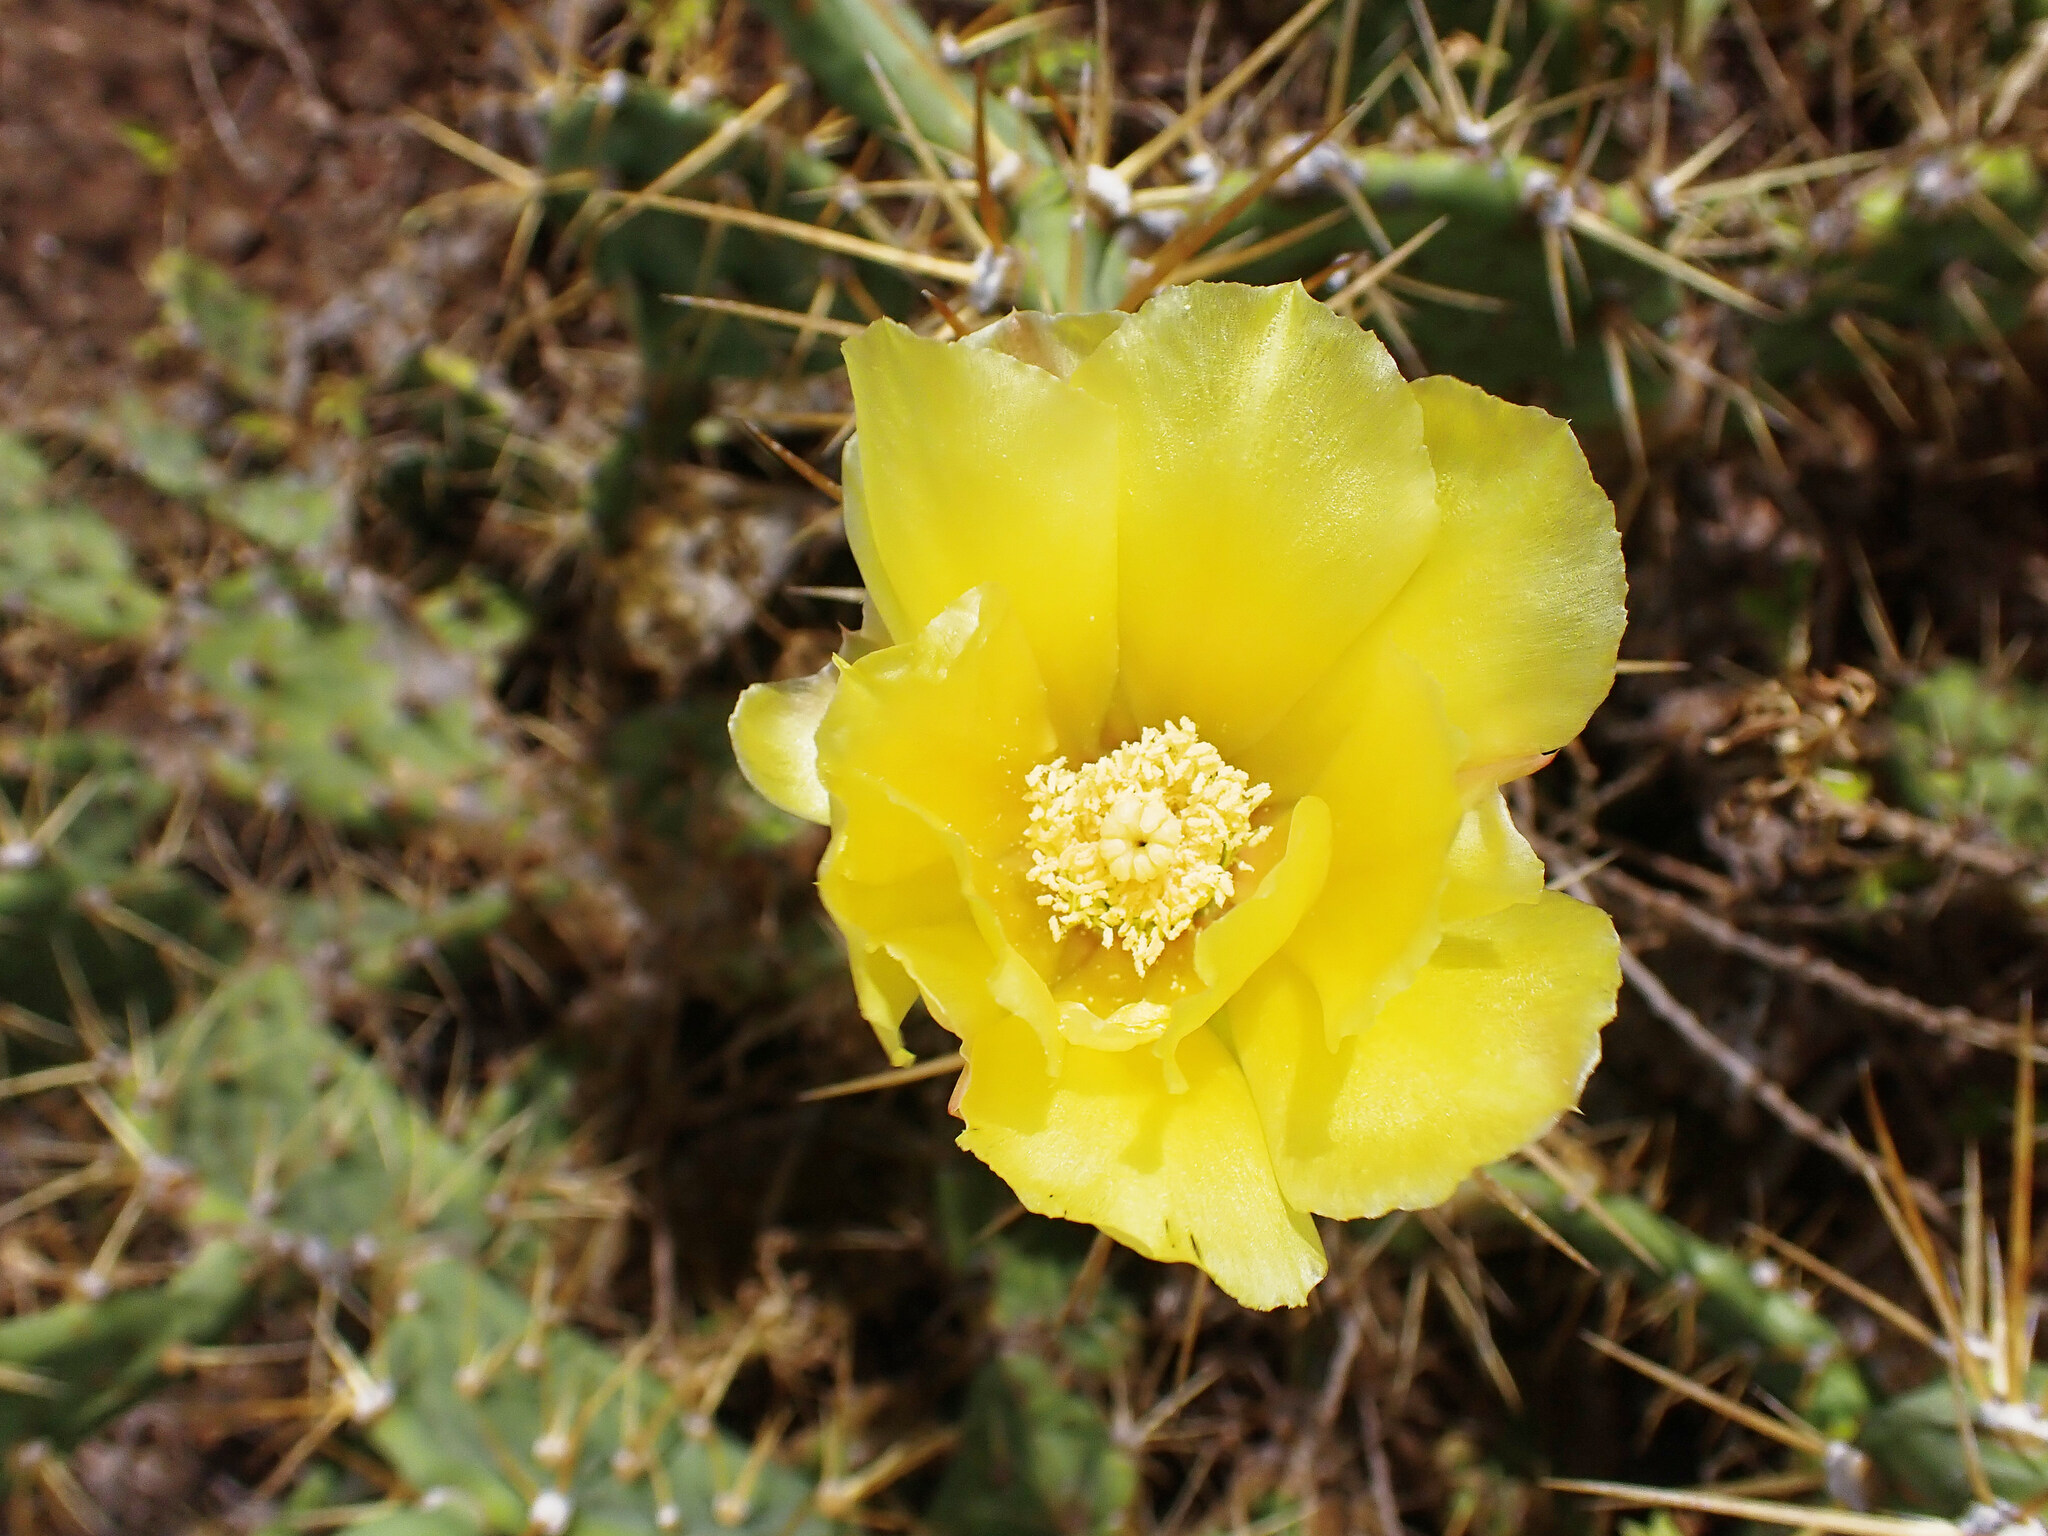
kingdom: Plantae
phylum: Tracheophyta
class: Magnoliopsida
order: Caryophyllales
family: Cactaceae
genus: Opuntia
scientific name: Opuntia stricta
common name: Erect pricklypear
